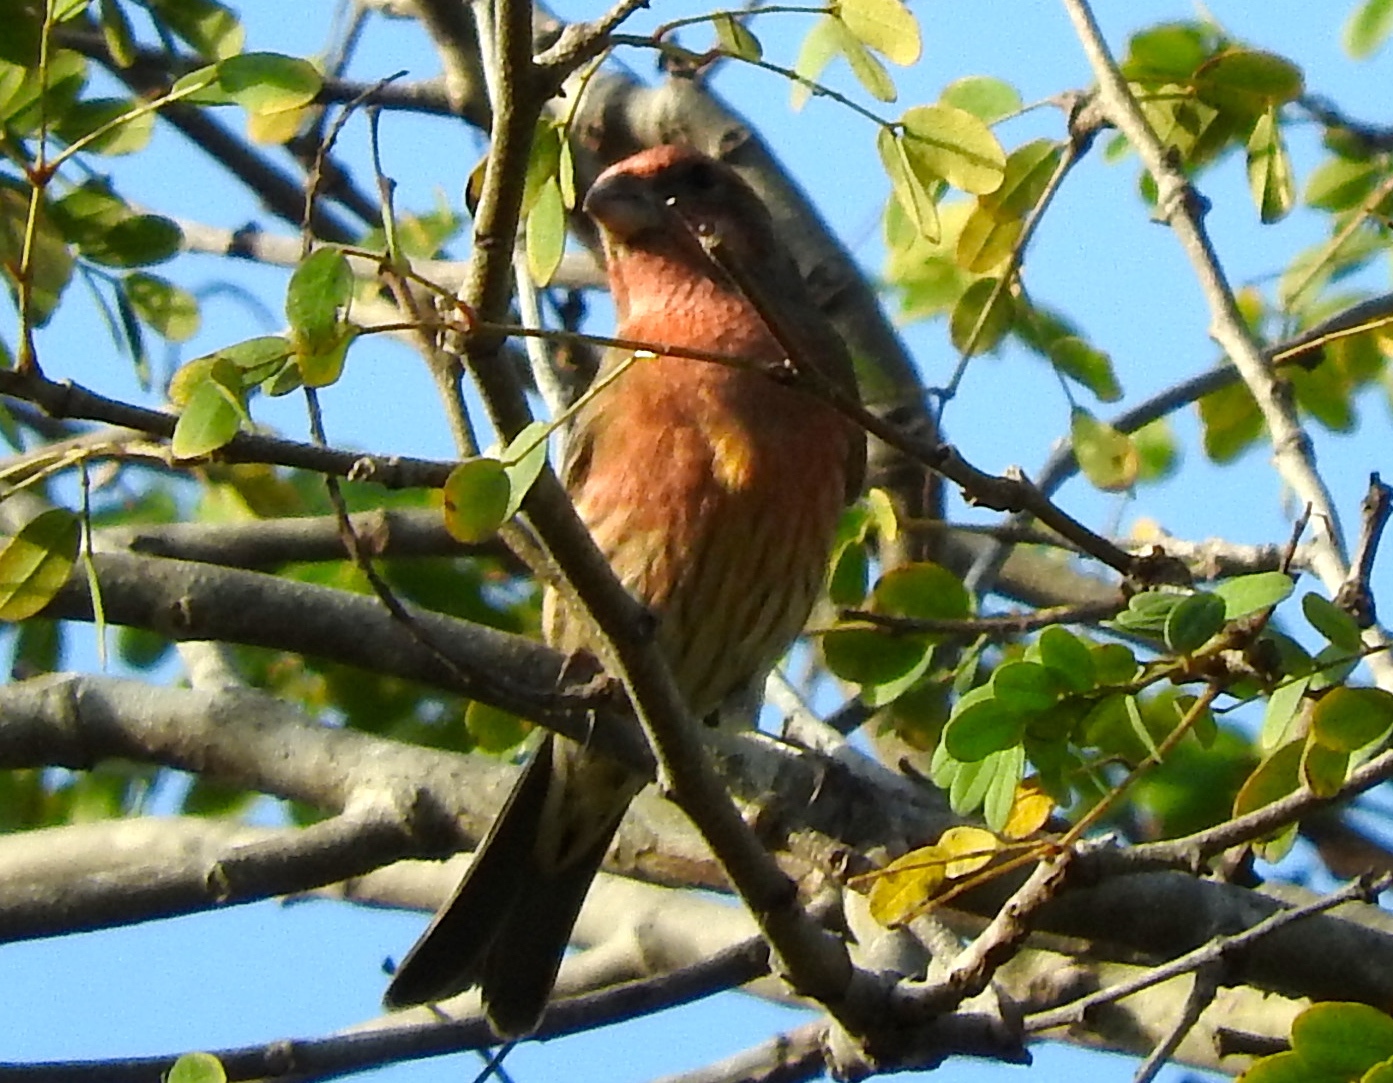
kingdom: Animalia
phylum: Chordata
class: Aves
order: Passeriformes
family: Fringillidae
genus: Haemorhous
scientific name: Haemorhous mexicanus
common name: House finch
